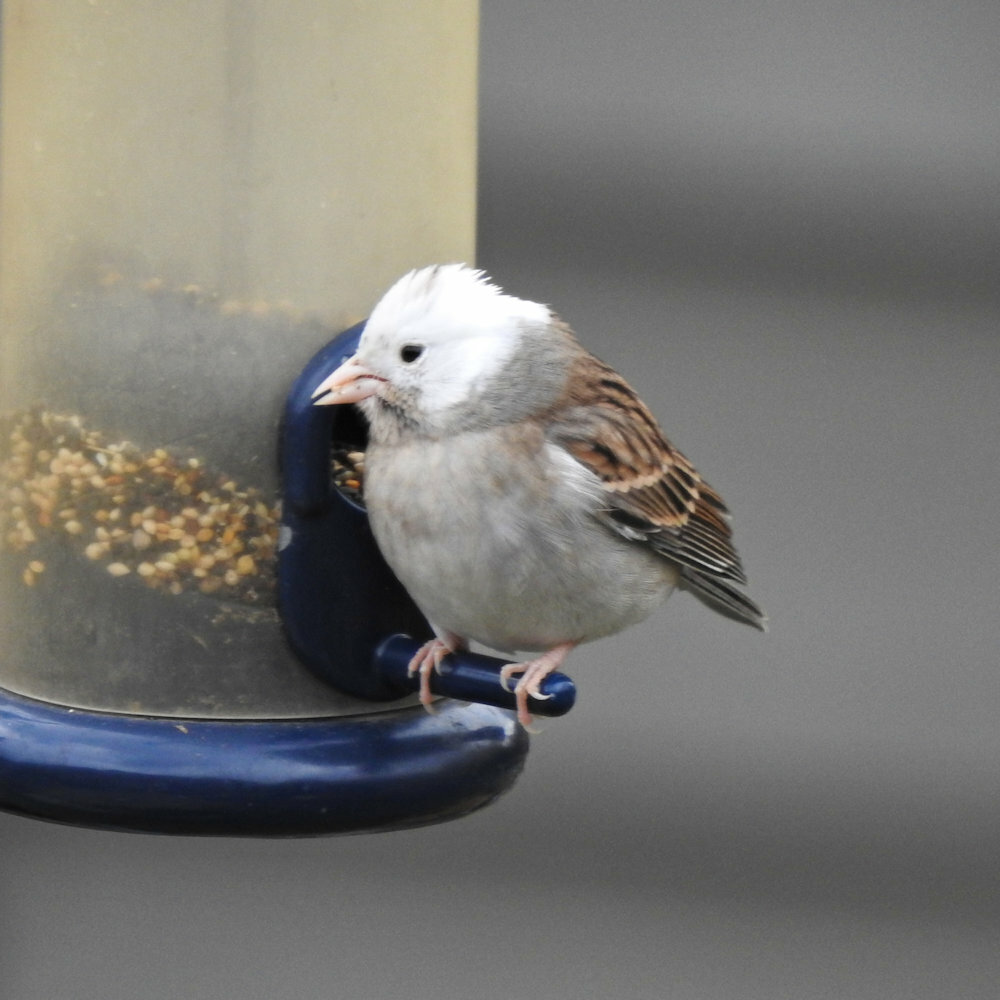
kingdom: Animalia
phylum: Chordata
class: Aves
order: Passeriformes
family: Passerellidae
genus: Spizella
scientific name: Spizella passerina
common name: Chipping sparrow
